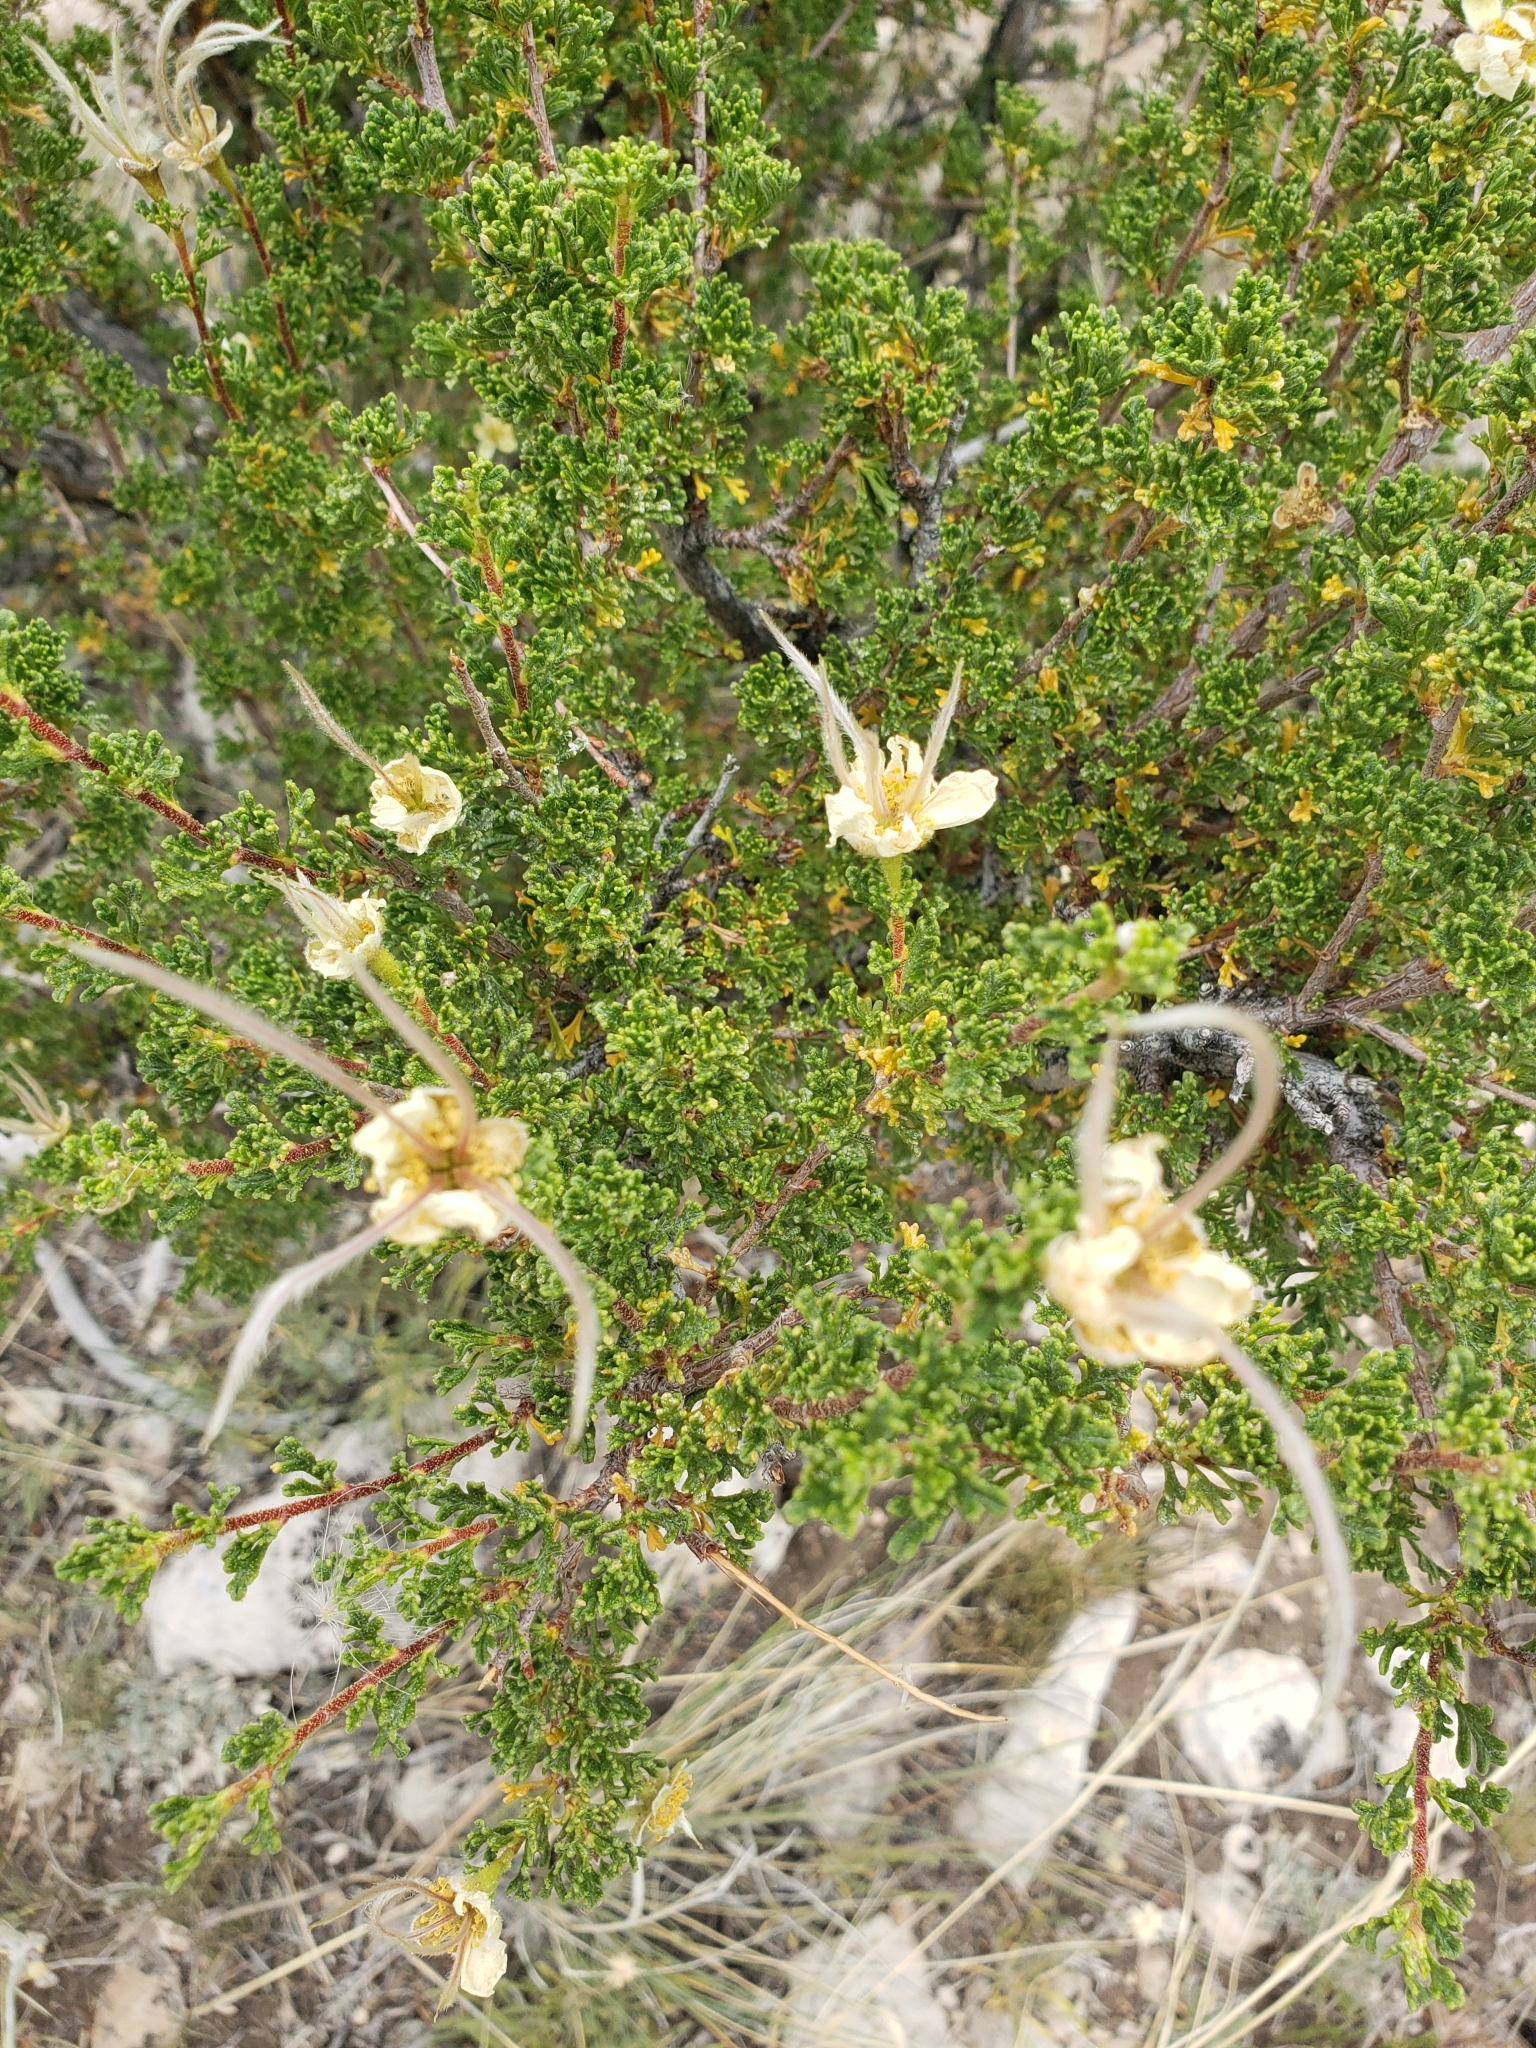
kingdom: Plantae
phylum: Tracheophyta
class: Magnoliopsida
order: Rosales
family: Rosaceae
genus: Purshia
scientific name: Purshia stansburiana
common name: Stansbury's cliffrose
